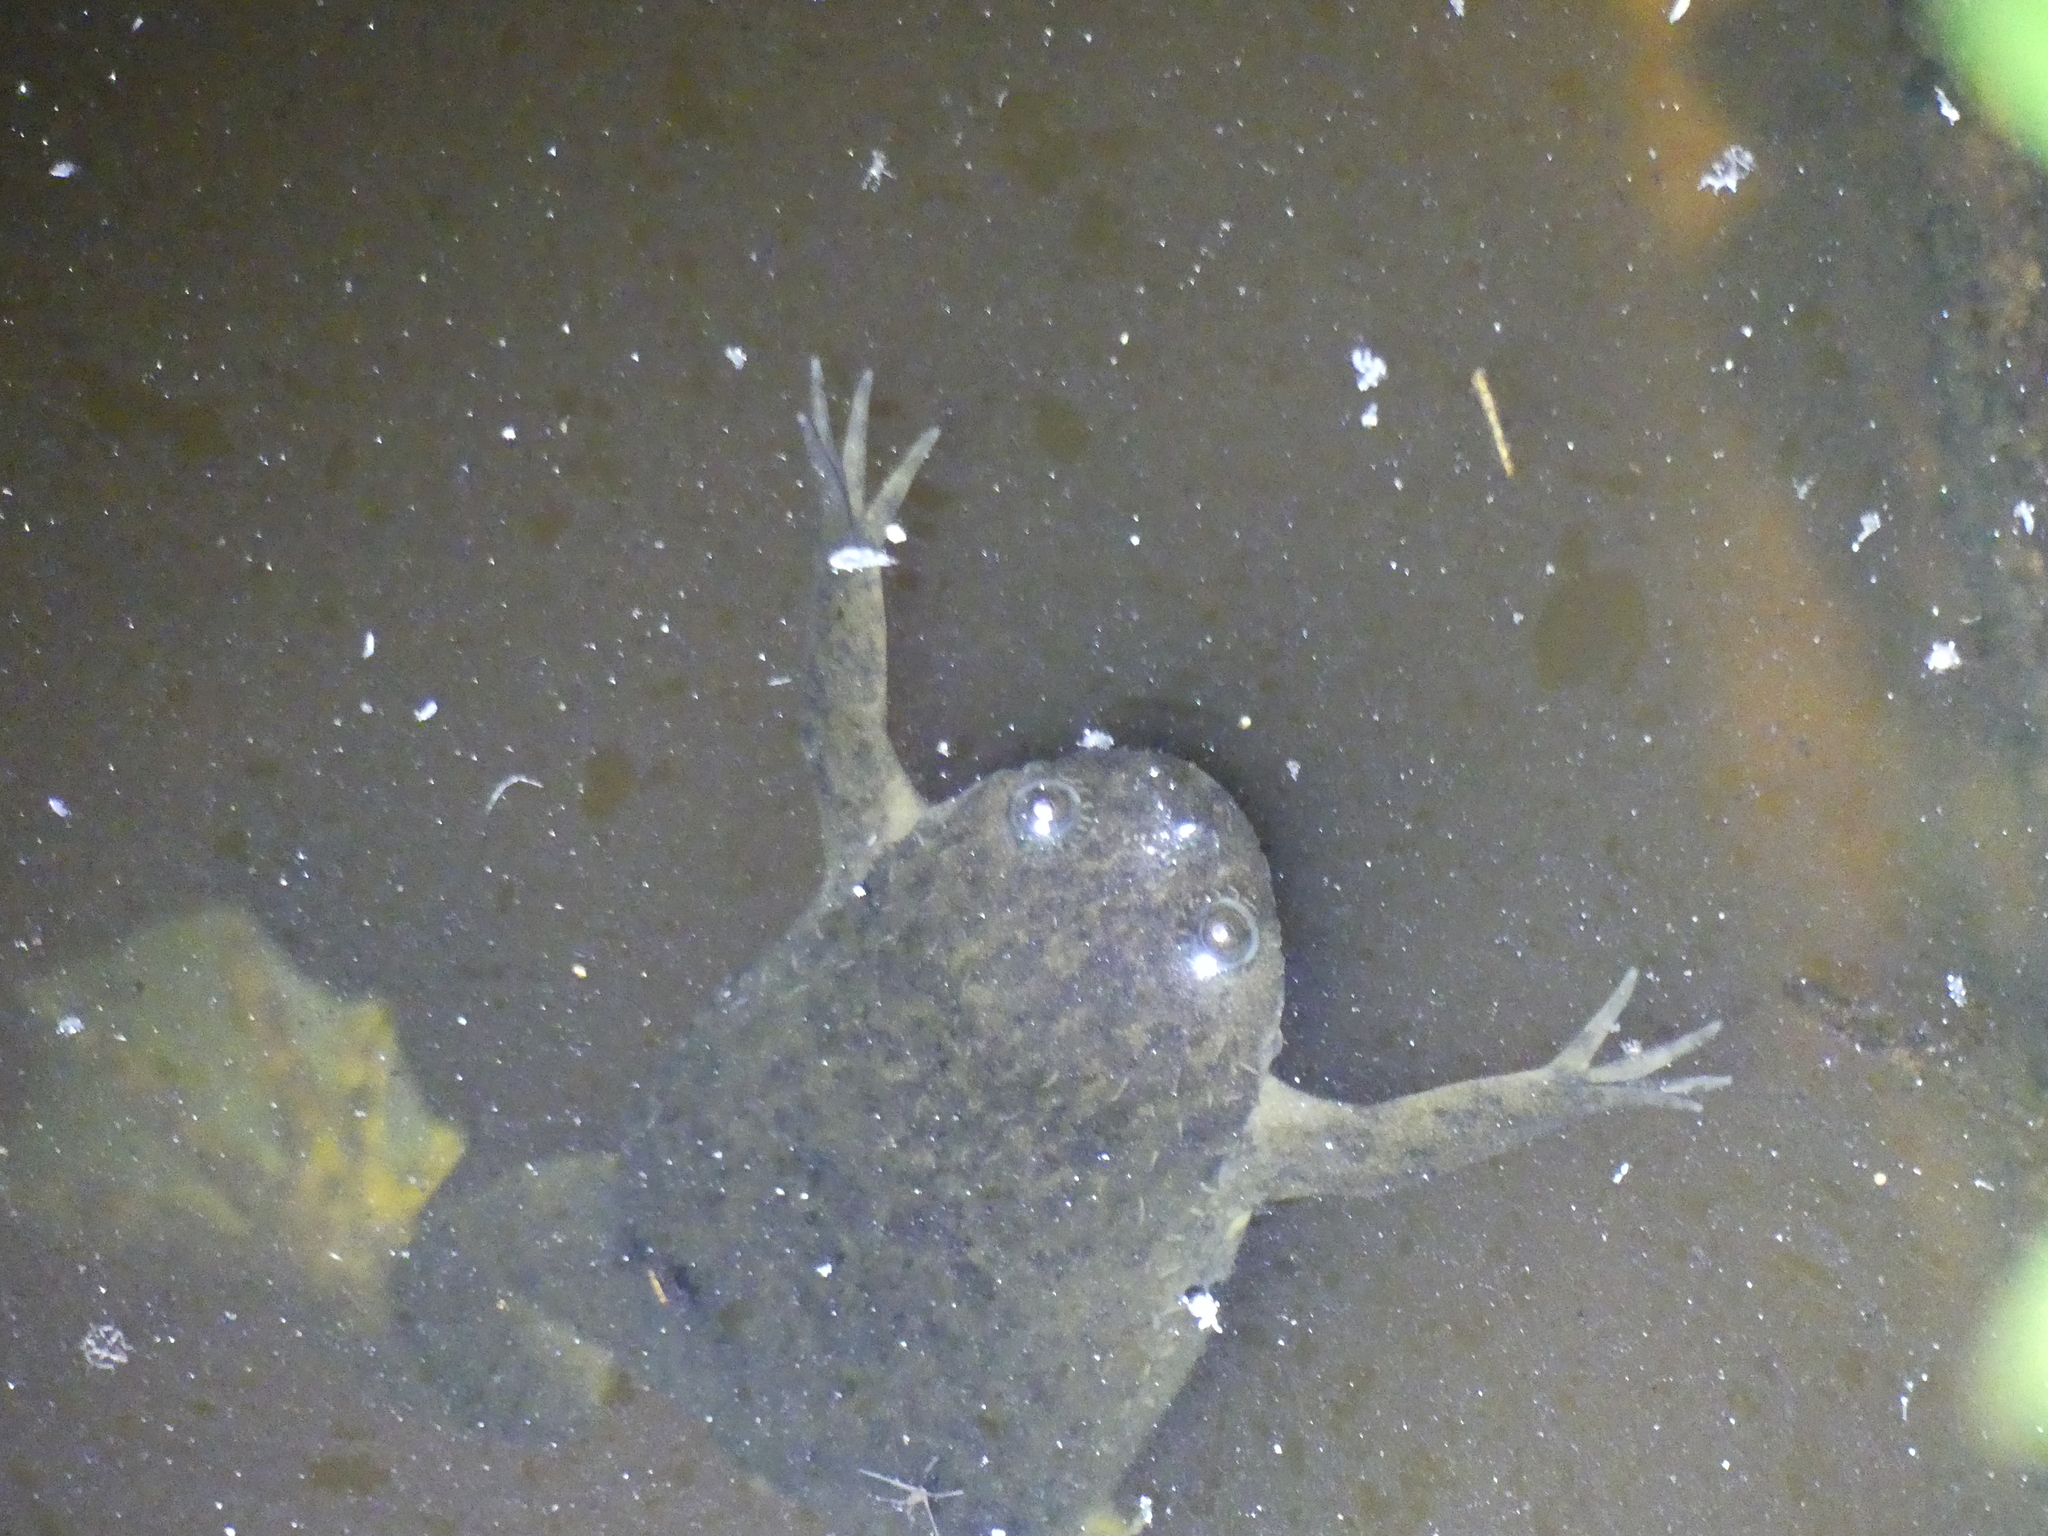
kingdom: Animalia
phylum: Chordata
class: Amphibia
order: Anura
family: Pipidae
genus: Xenopus
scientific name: Xenopus borealis
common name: Marsabit clawed frog
